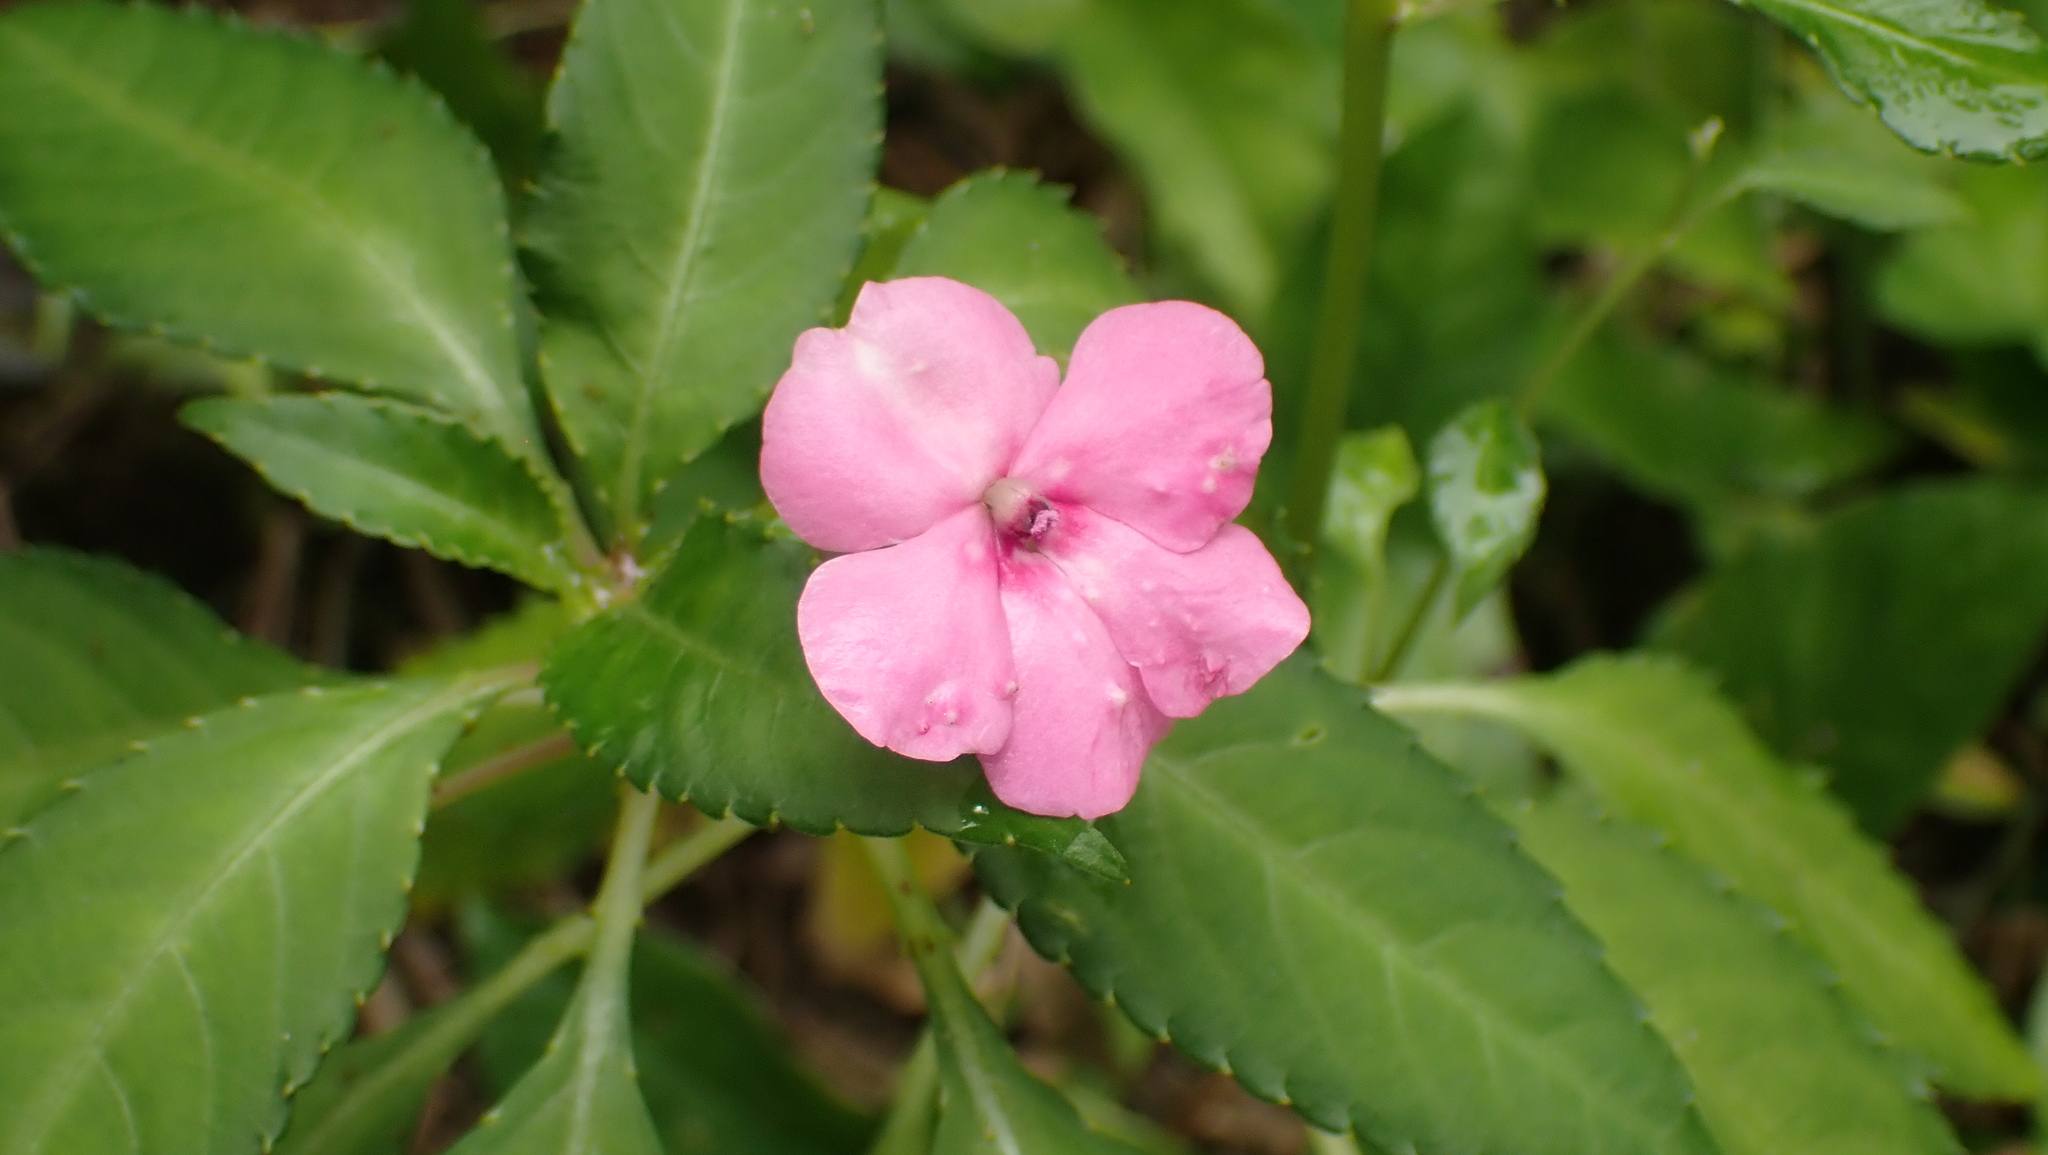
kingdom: Plantae
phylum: Tracheophyta
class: Magnoliopsida
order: Ericales
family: Balsaminaceae
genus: Impatiens
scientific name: Impatiens walleriana
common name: Buzzy lizzy
